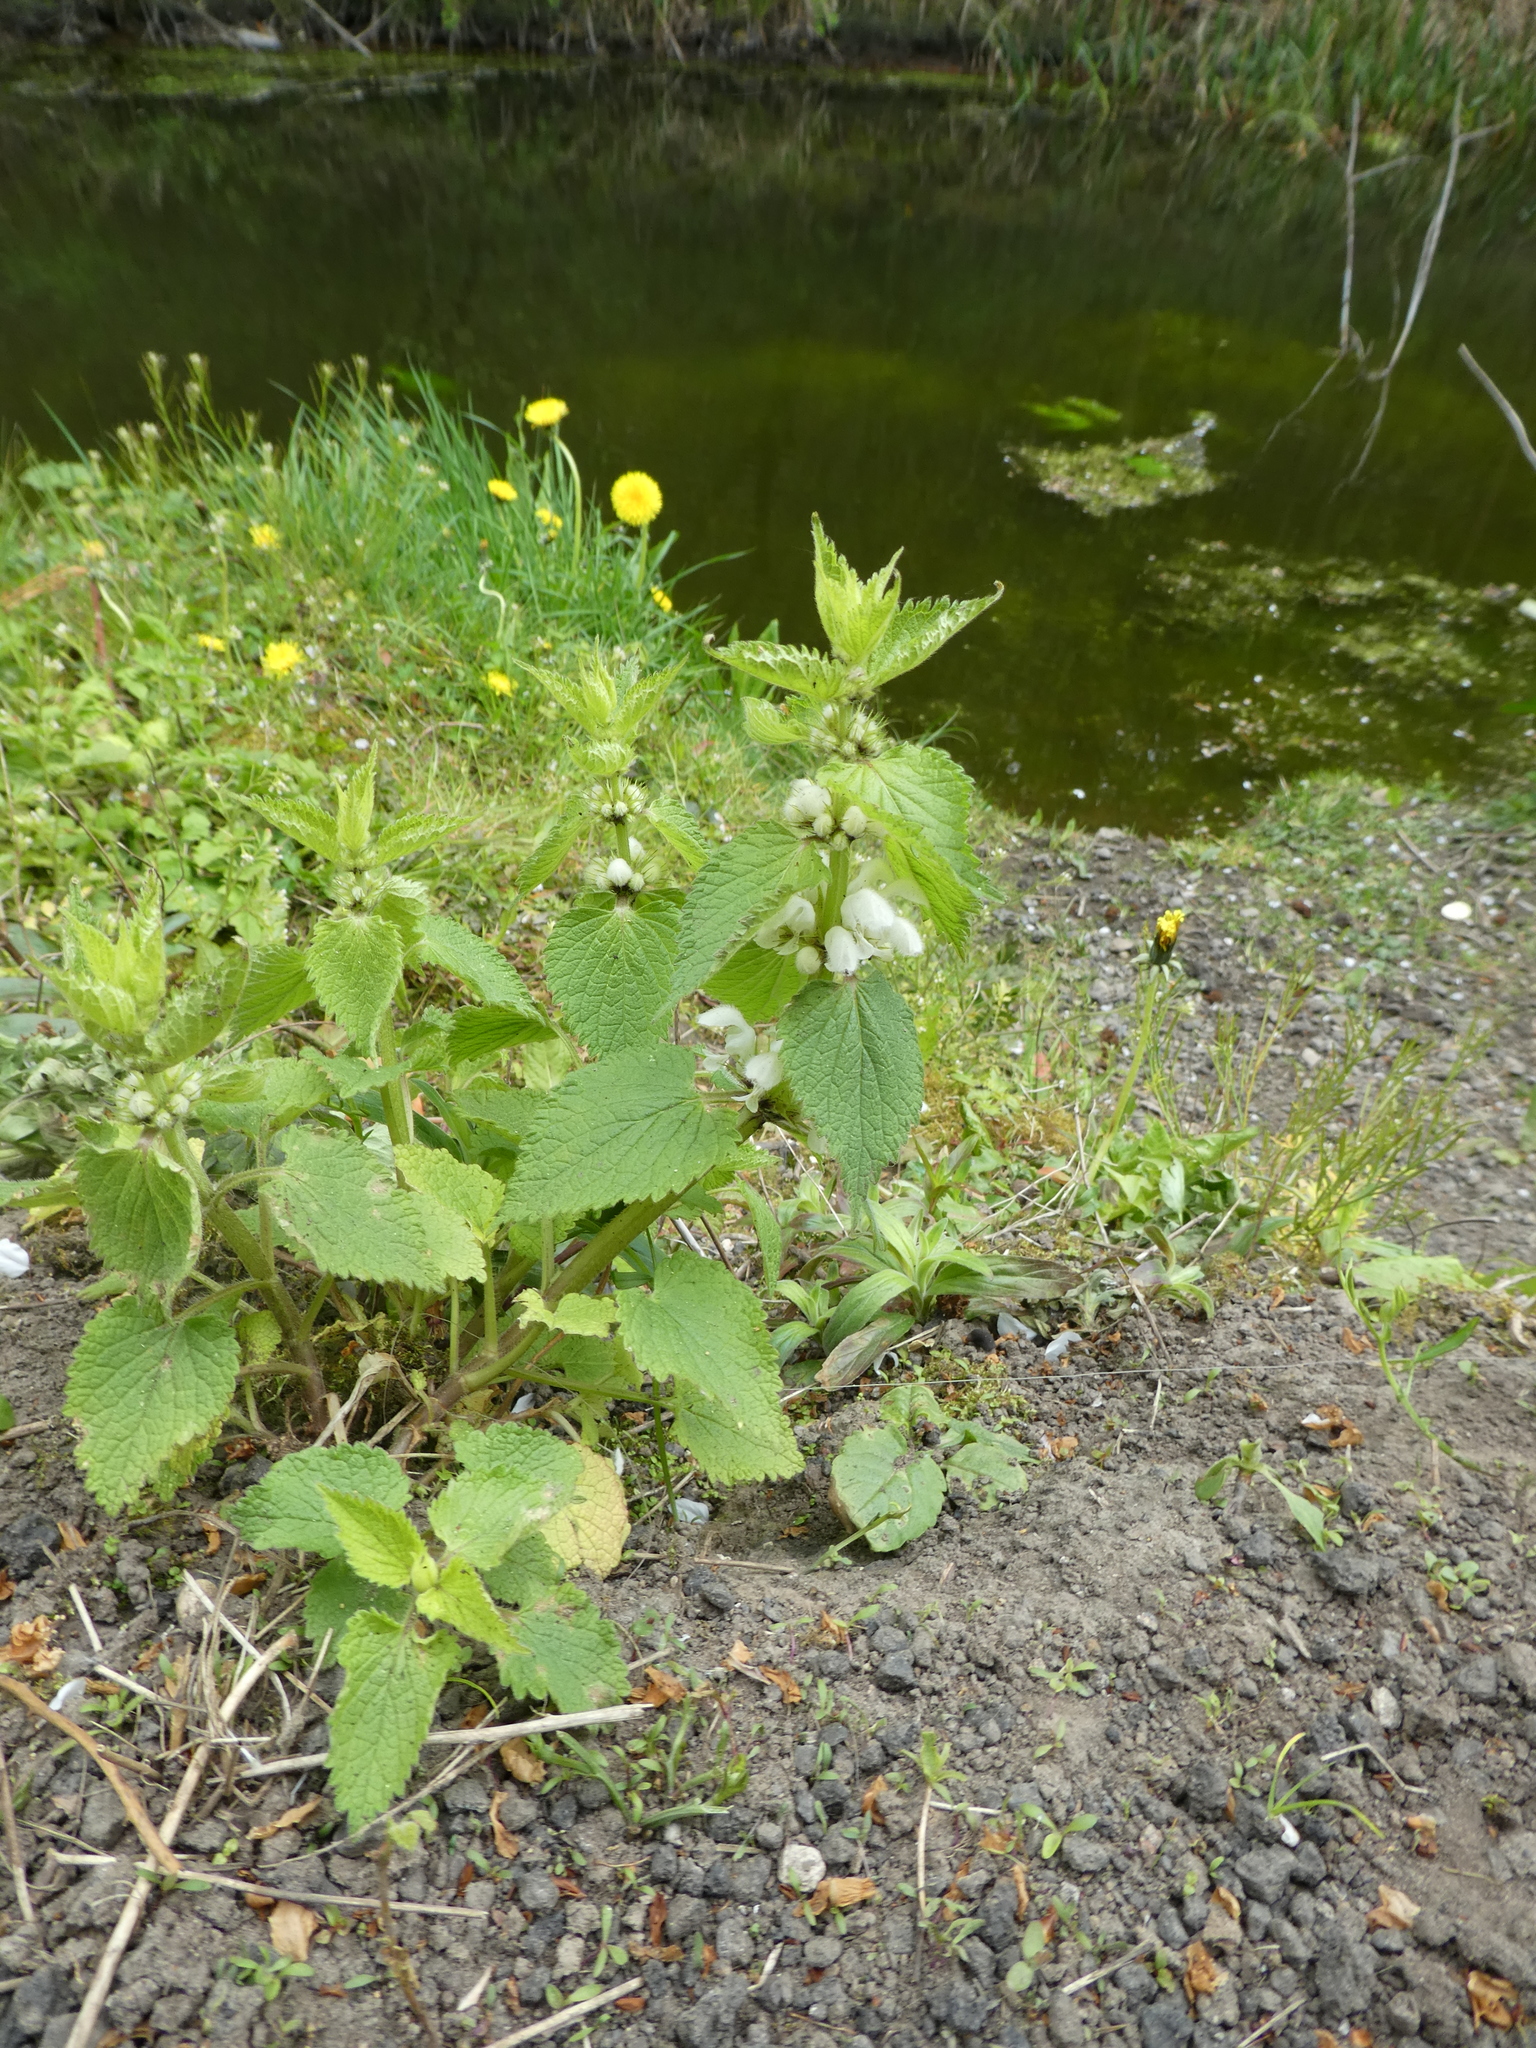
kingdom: Plantae
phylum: Tracheophyta
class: Magnoliopsida
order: Lamiales
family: Lamiaceae
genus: Lamium
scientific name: Lamium album
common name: White dead-nettle
